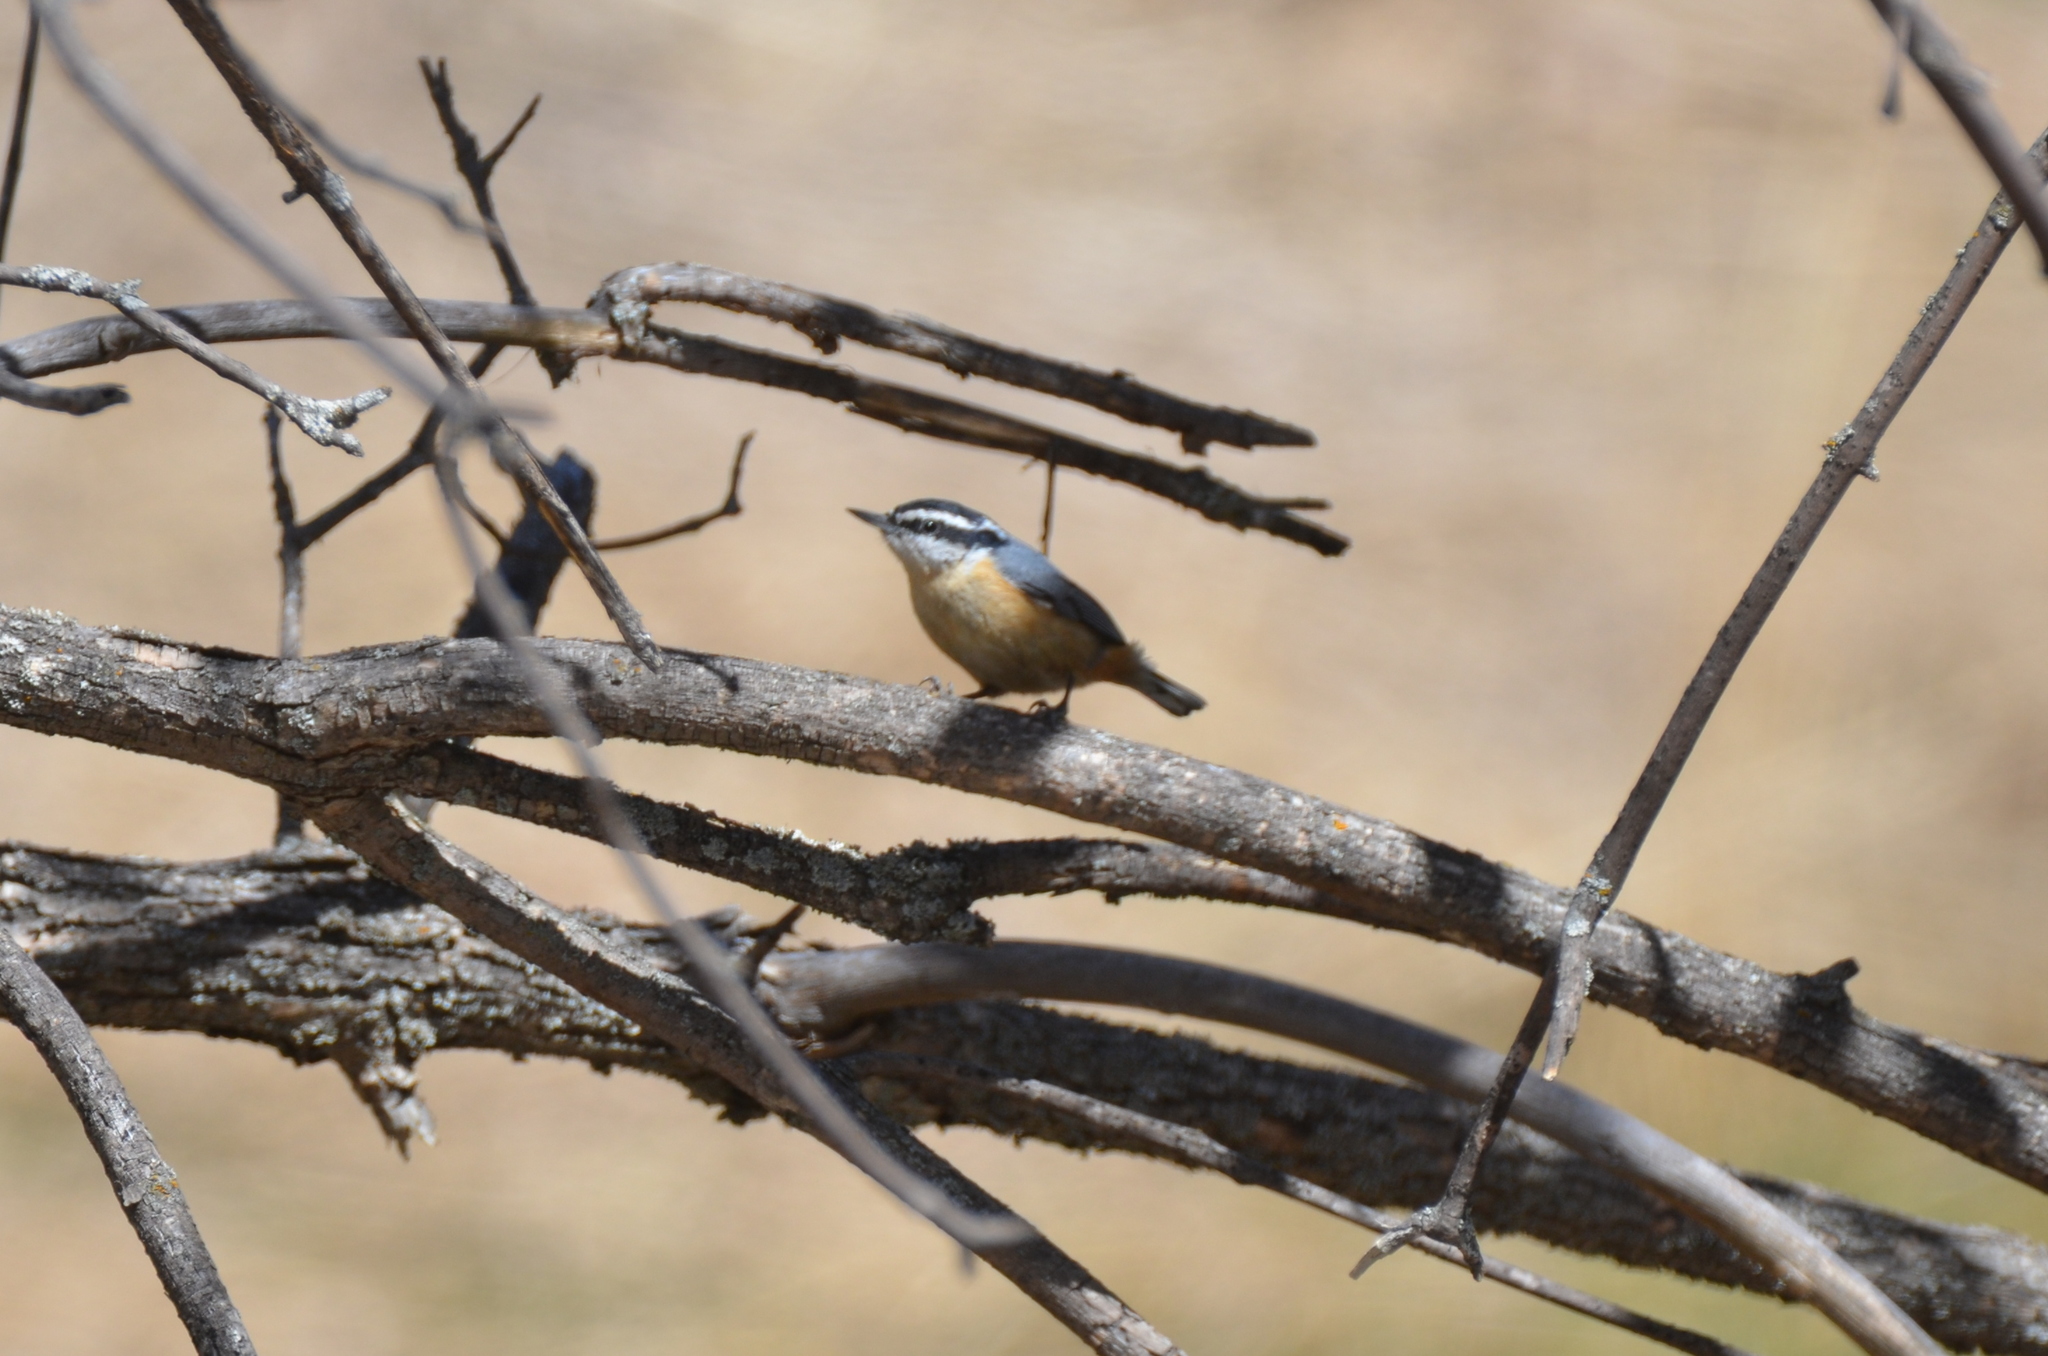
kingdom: Animalia
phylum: Chordata
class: Aves
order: Passeriformes
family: Sittidae
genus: Sitta
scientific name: Sitta canadensis
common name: Red-breasted nuthatch
